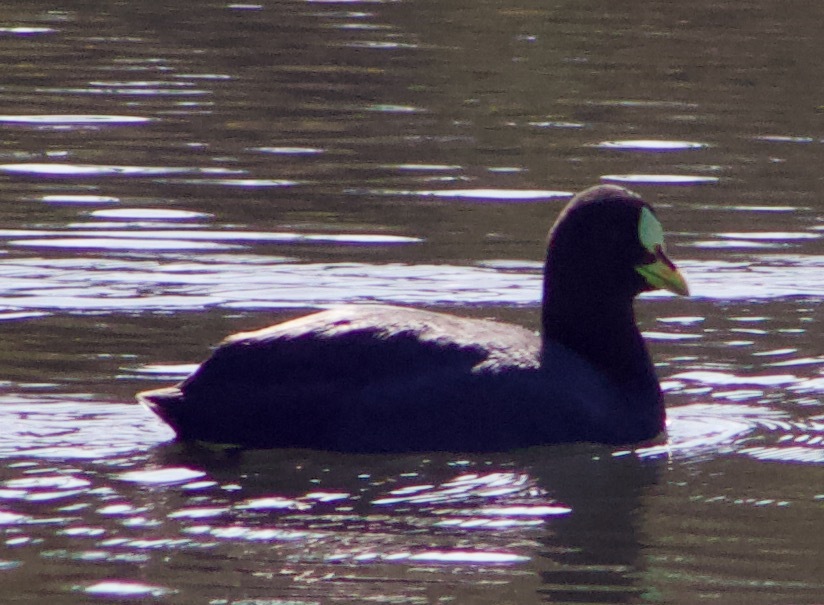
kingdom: Animalia
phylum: Chordata
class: Aves
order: Gruiformes
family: Rallidae
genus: Fulica
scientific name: Fulica armillata
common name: Red-gartered coot
